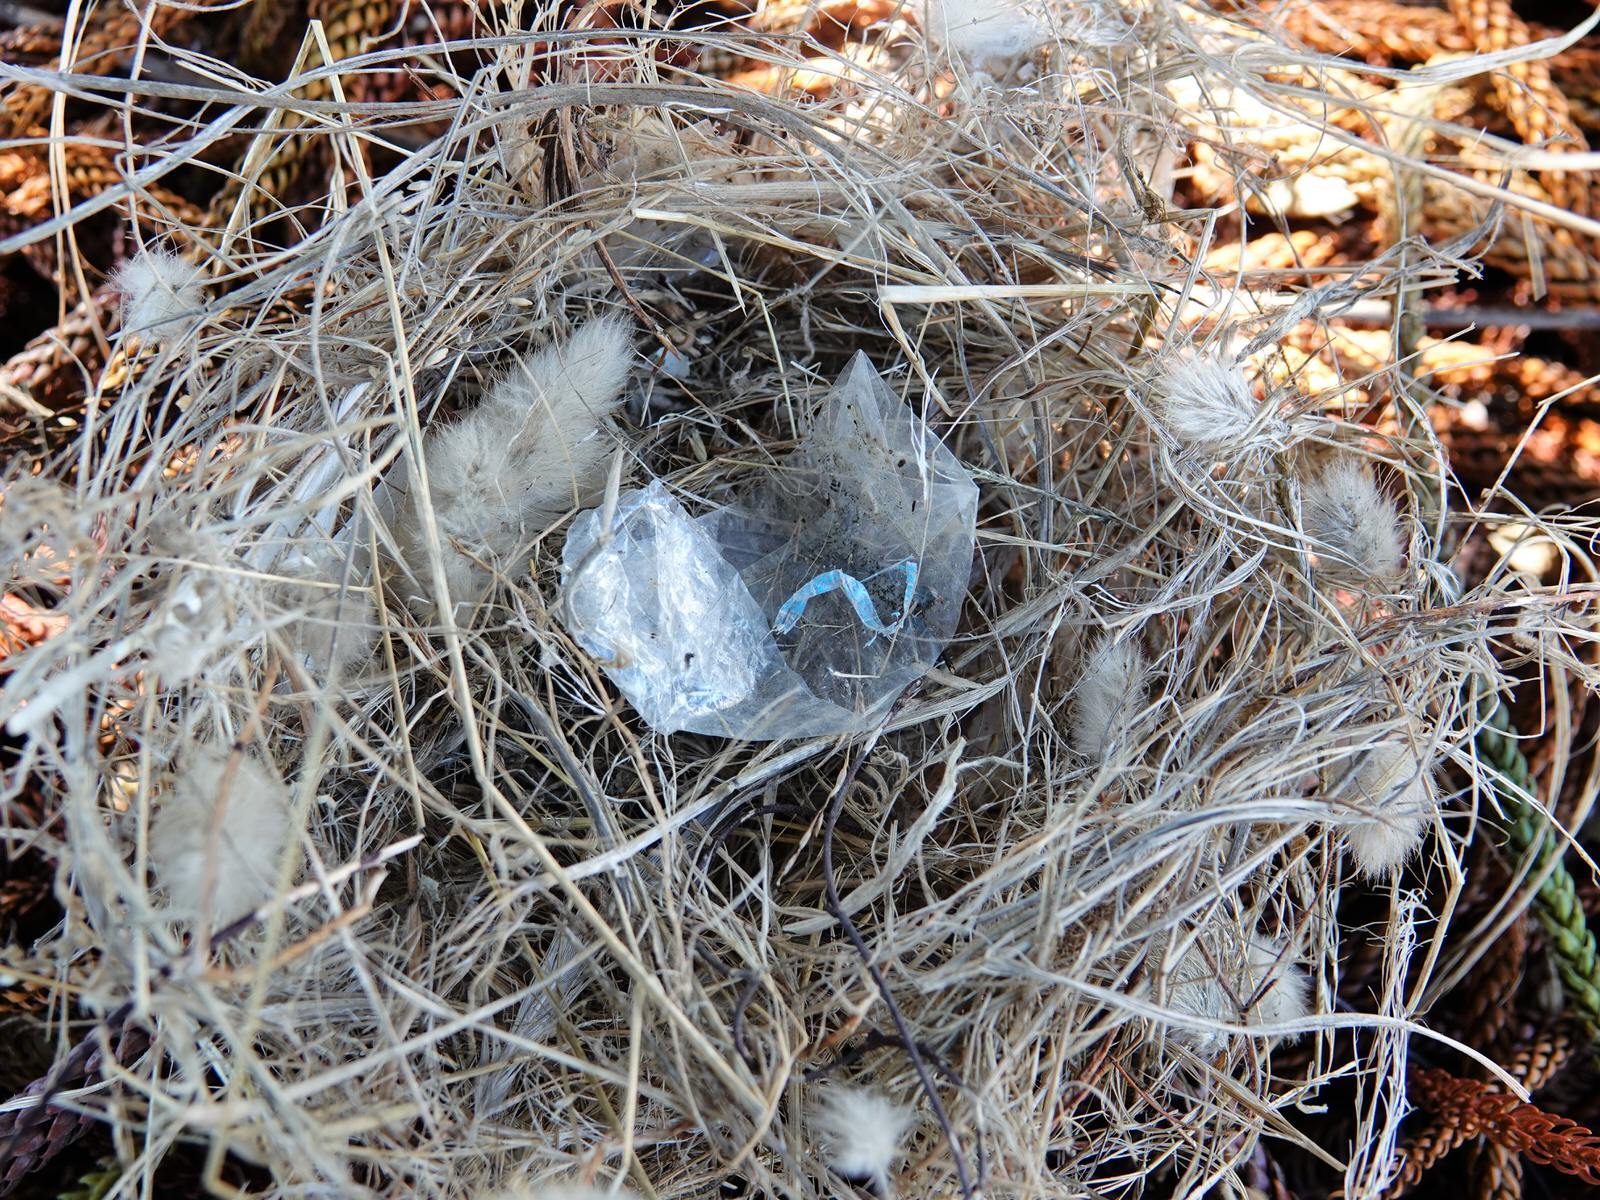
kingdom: Animalia
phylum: Chordata
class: Aves
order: Passeriformes
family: Passeridae
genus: Passer
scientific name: Passer domesticus
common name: House sparrow
